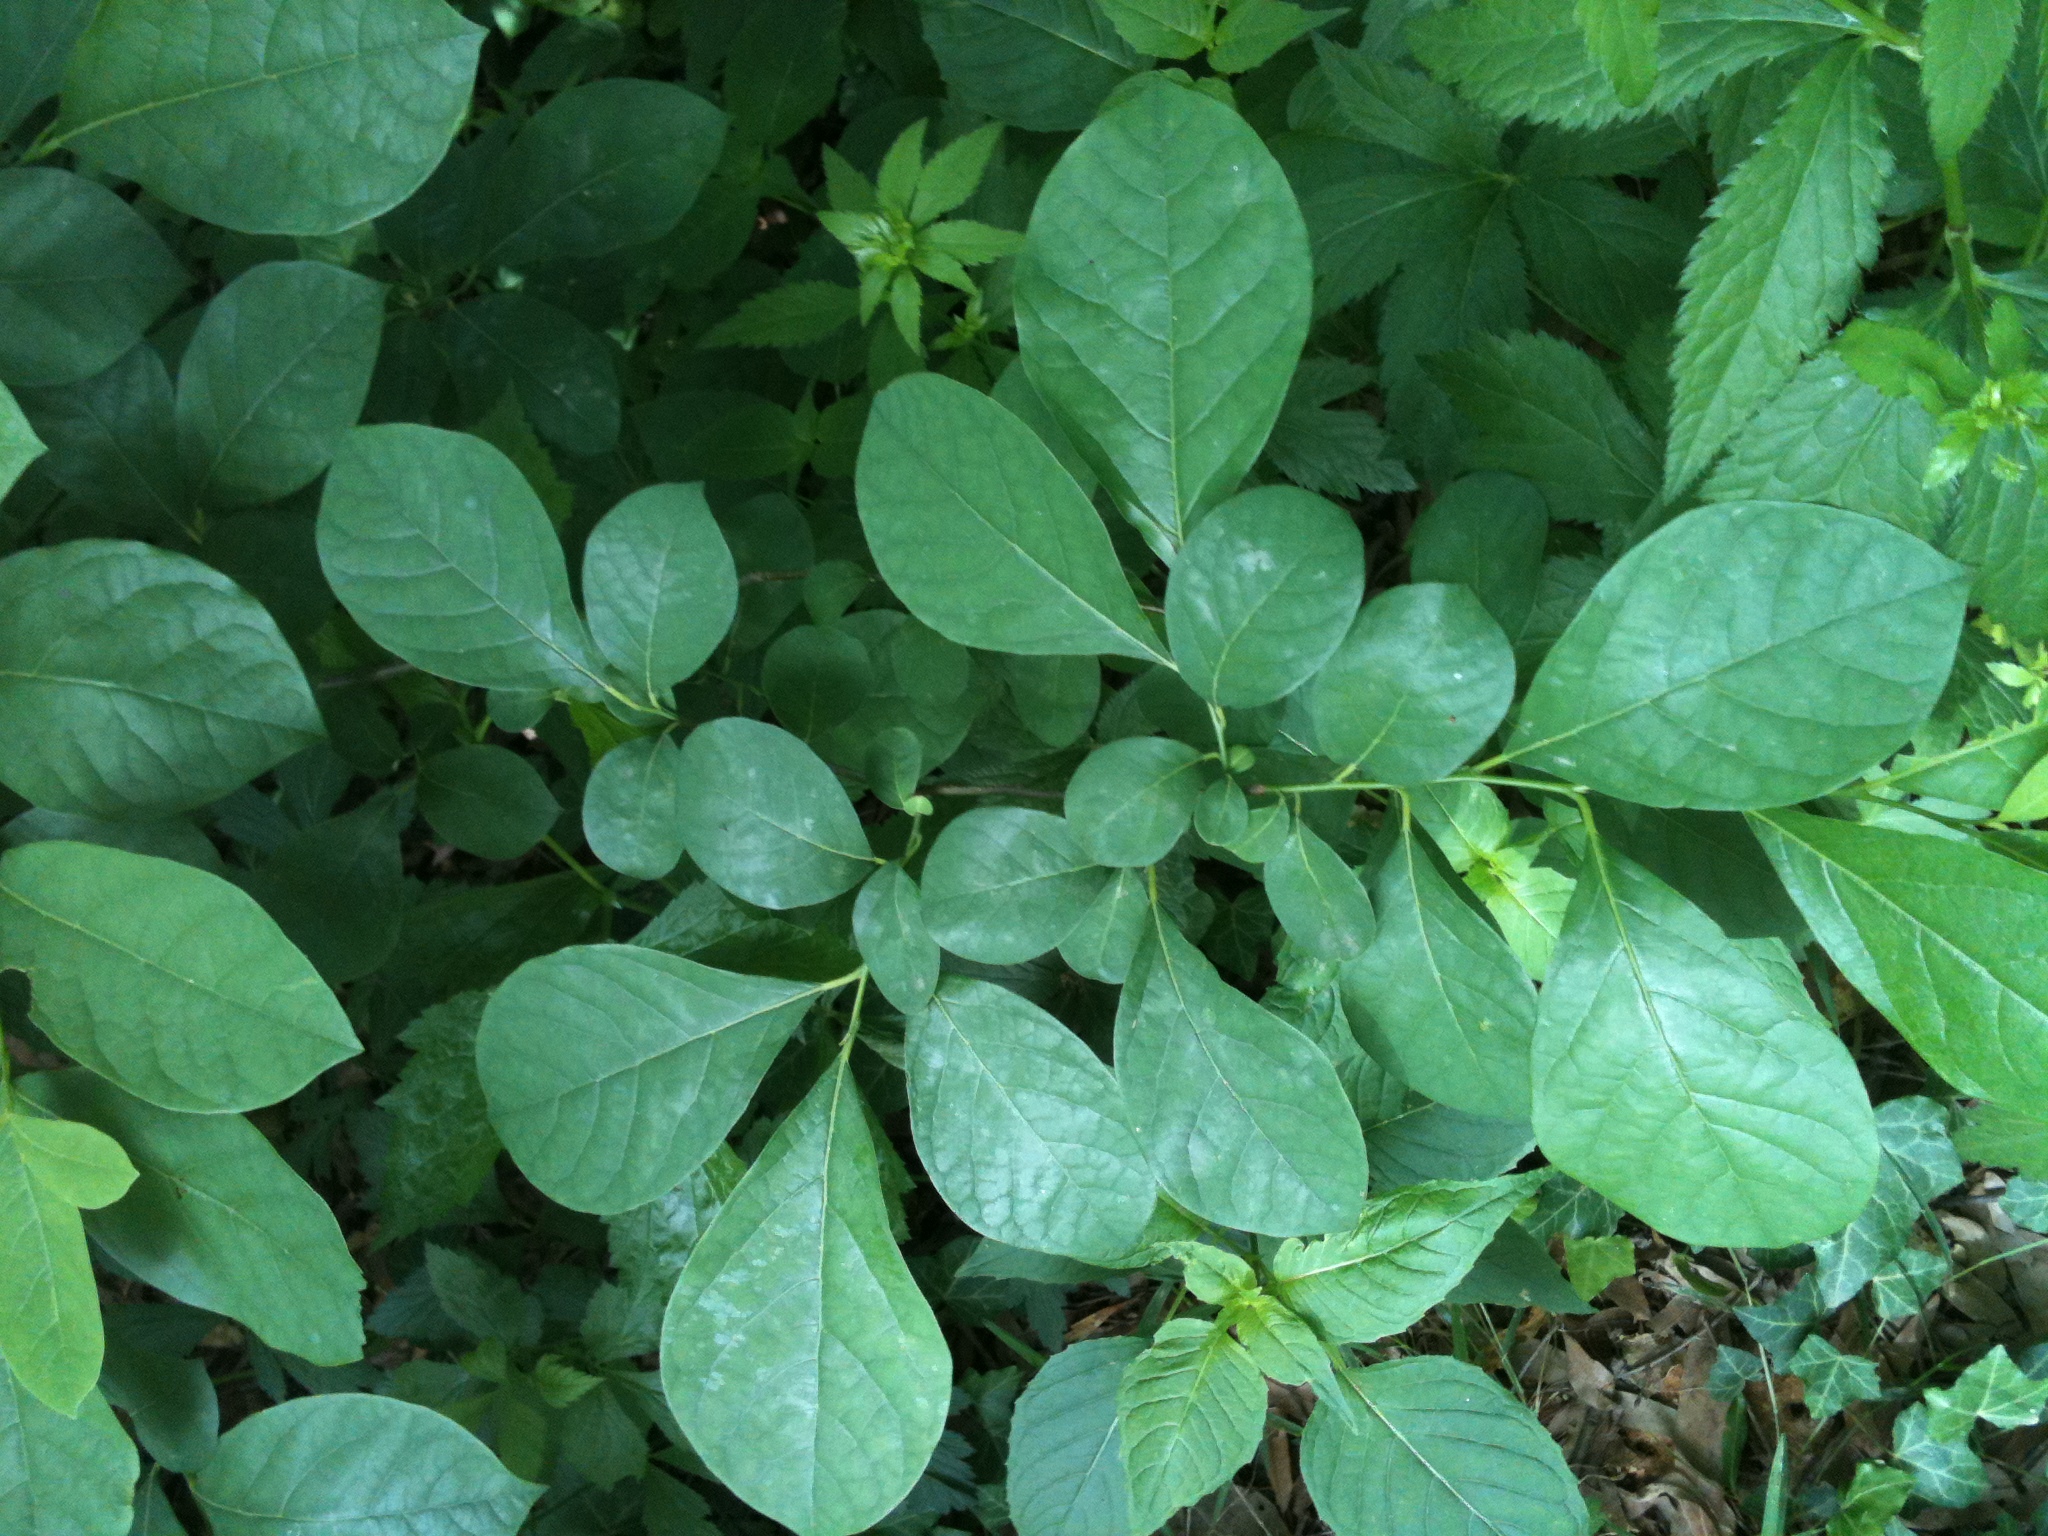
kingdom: Plantae
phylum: Tracheophyta
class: Magnoliopsida
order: Laurales
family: Lauraceae
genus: Lindera
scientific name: Lindera benzoin
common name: Spicebush
